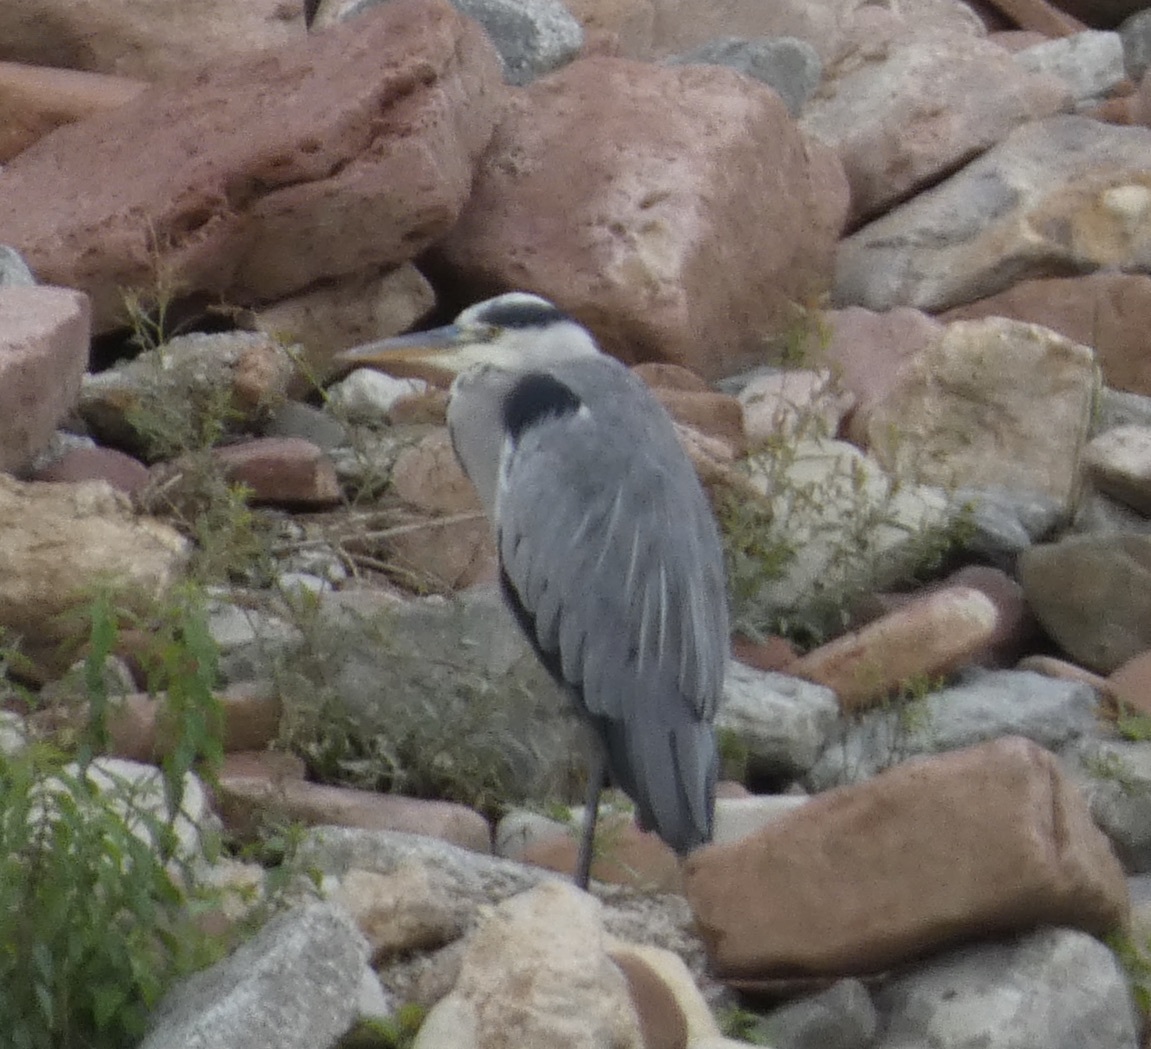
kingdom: Animalia
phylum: Chordata
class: Aves
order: Pelecaniformes
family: Ardeidae
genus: Ardea
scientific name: Ardea cinerea
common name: Grey heron
